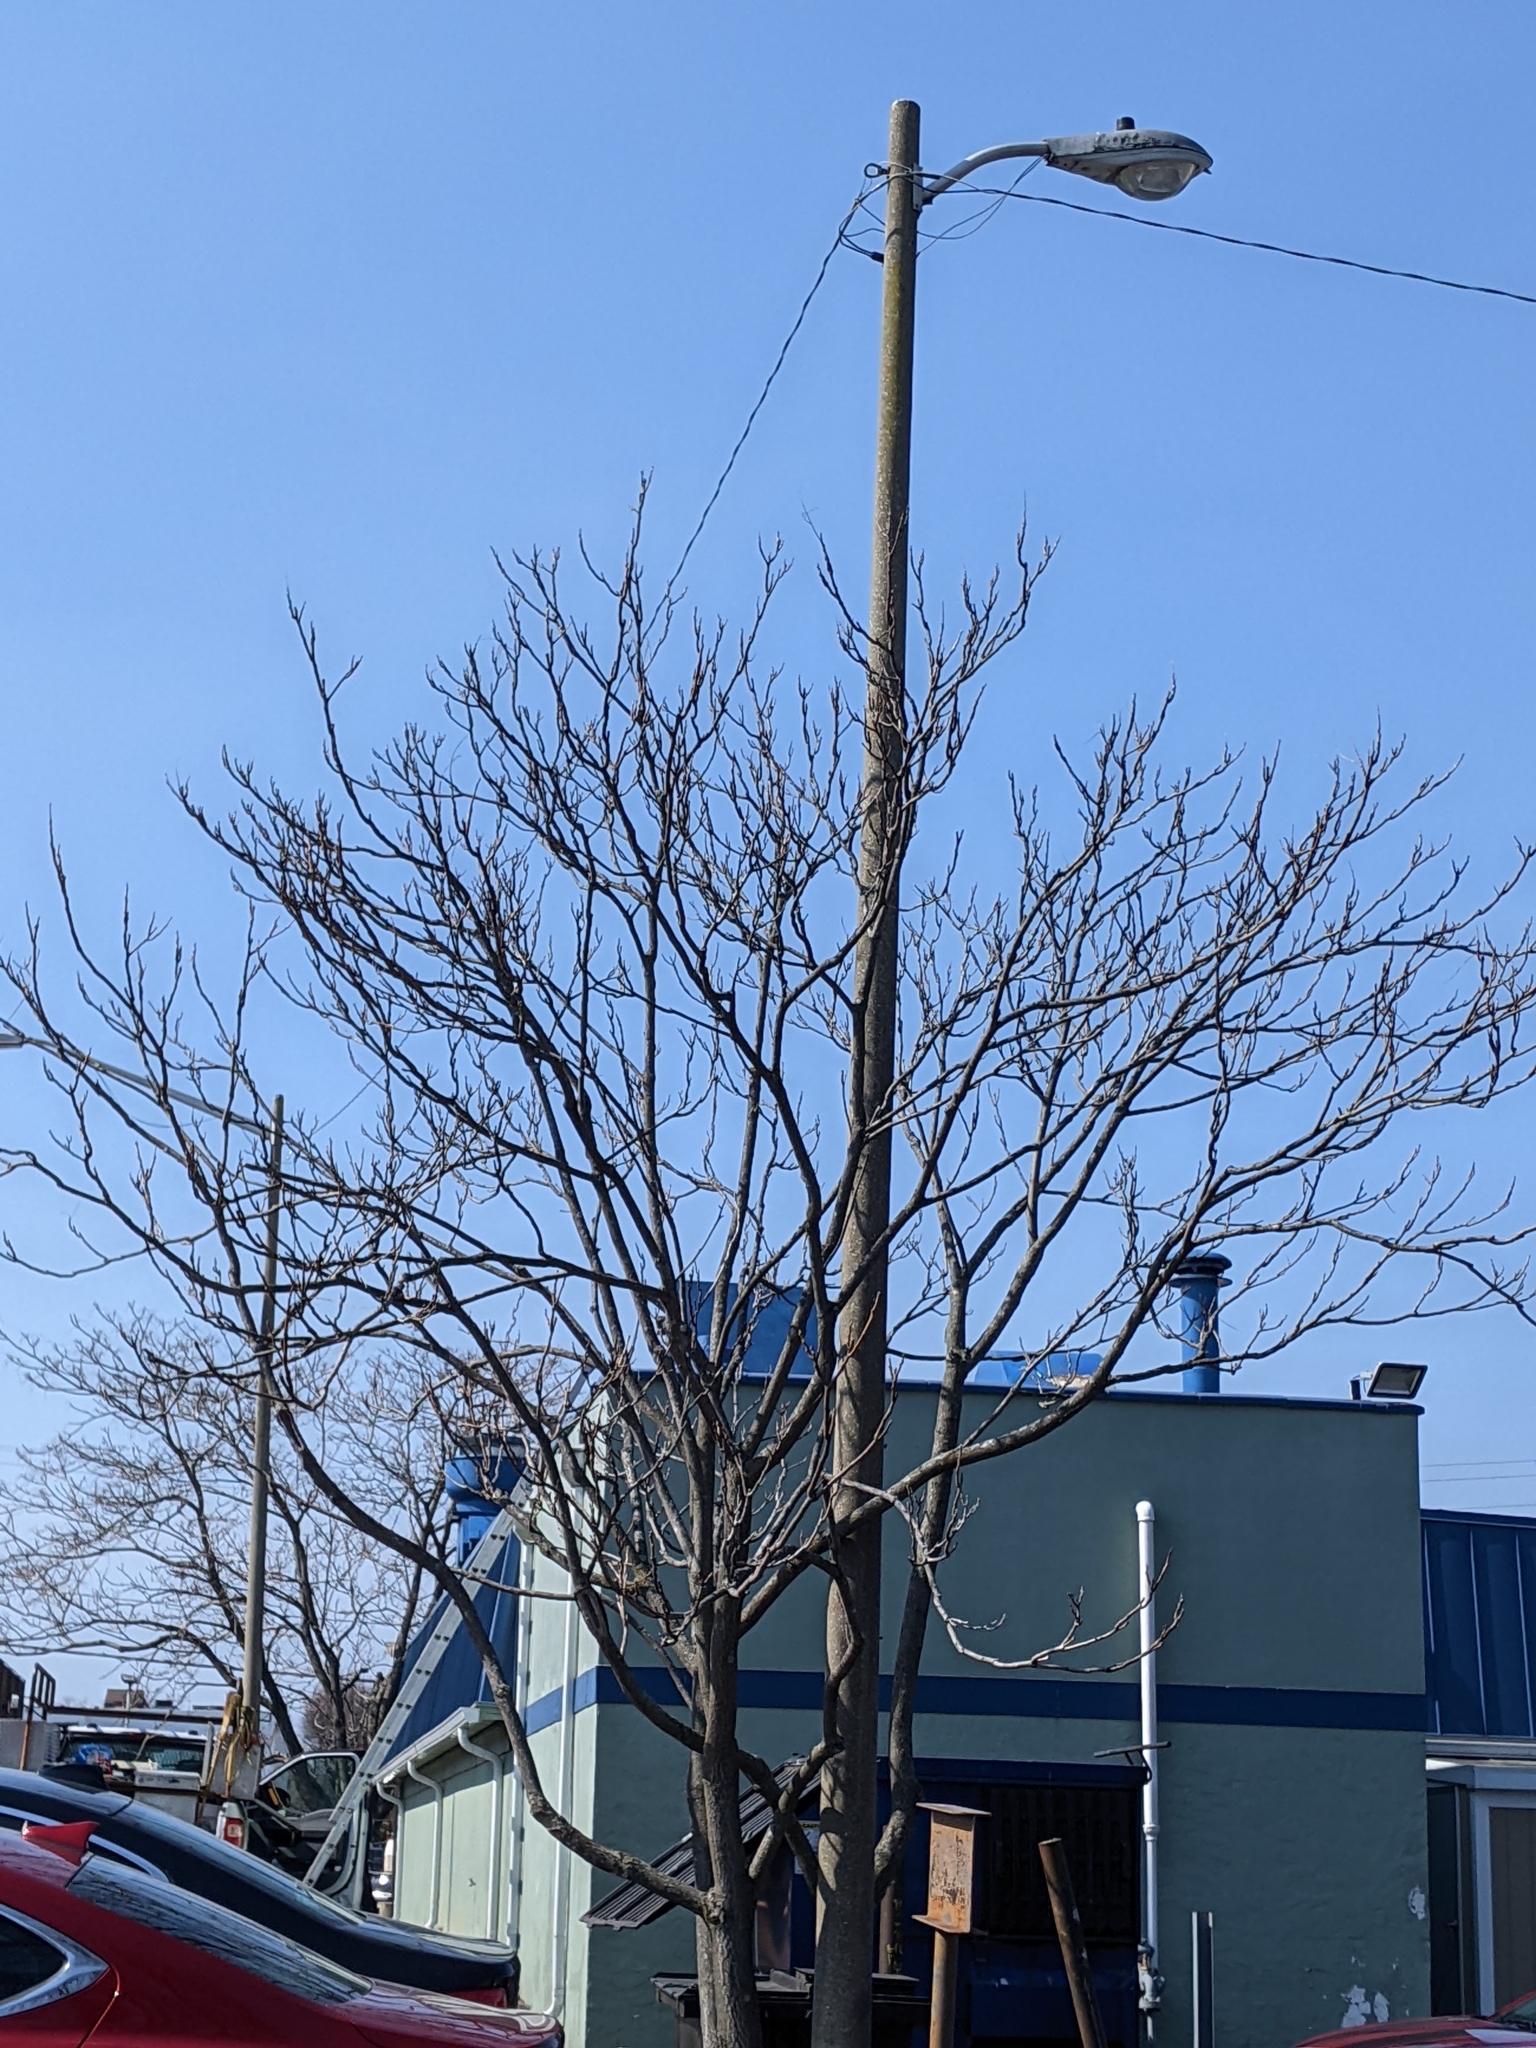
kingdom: Plantae
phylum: Tracheophyta
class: Magnoliopsida
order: Sapindales
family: Simaroubaceae
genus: Ailanthus
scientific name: Ailanthus altissima
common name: Tree-of-heaven
